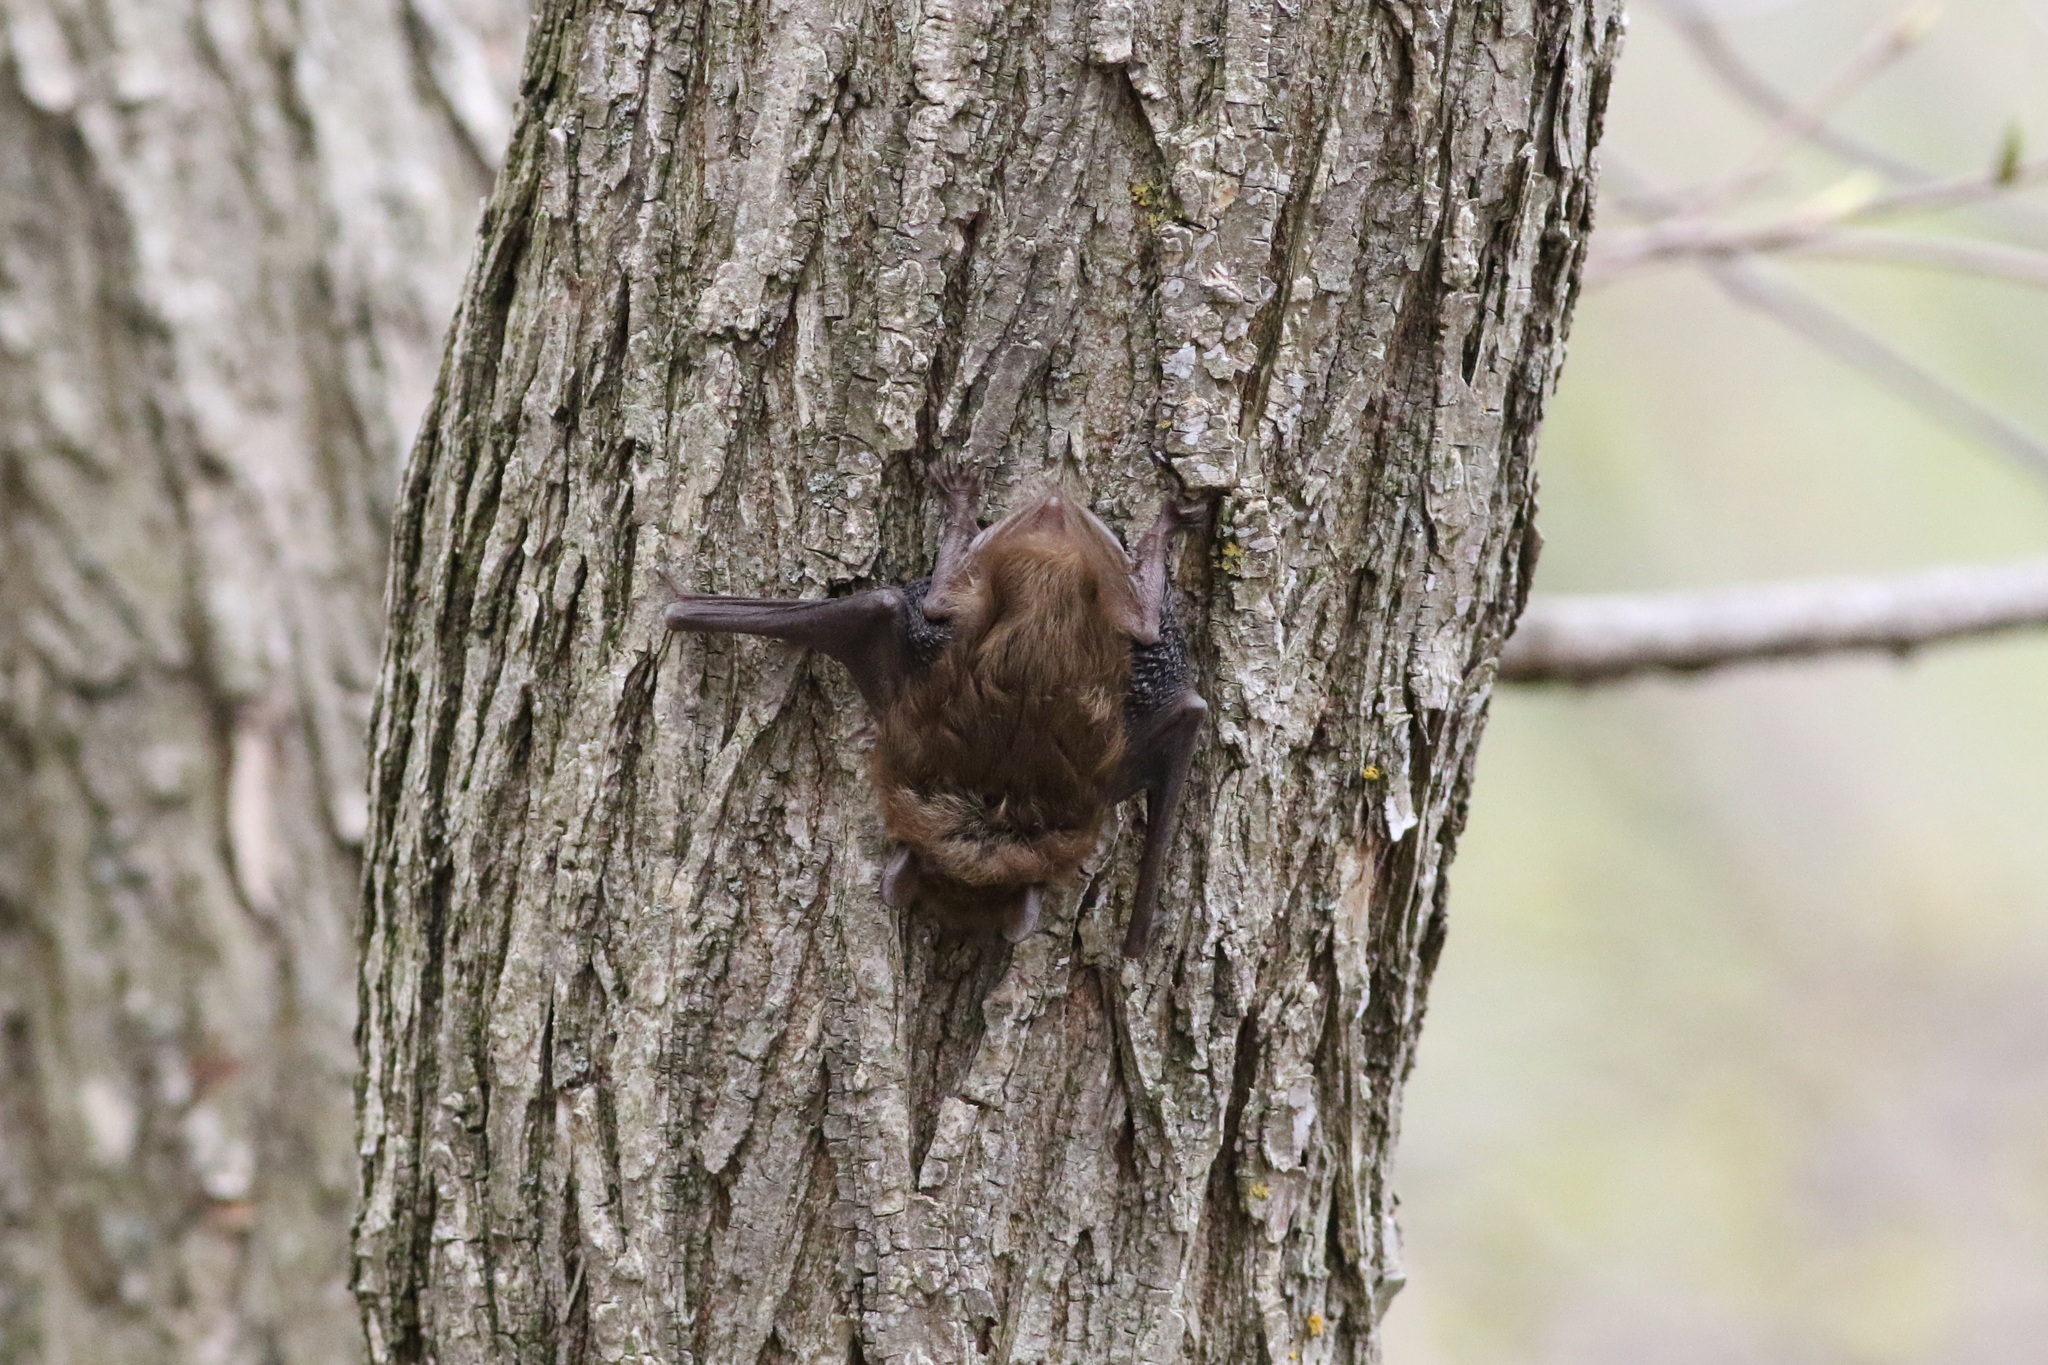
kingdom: Animalia
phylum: Chordata
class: Mammalia
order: Chiroptera
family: Vespertilionidae
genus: Eptesicus
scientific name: Eptesicus fuscus
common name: Big brown bat
